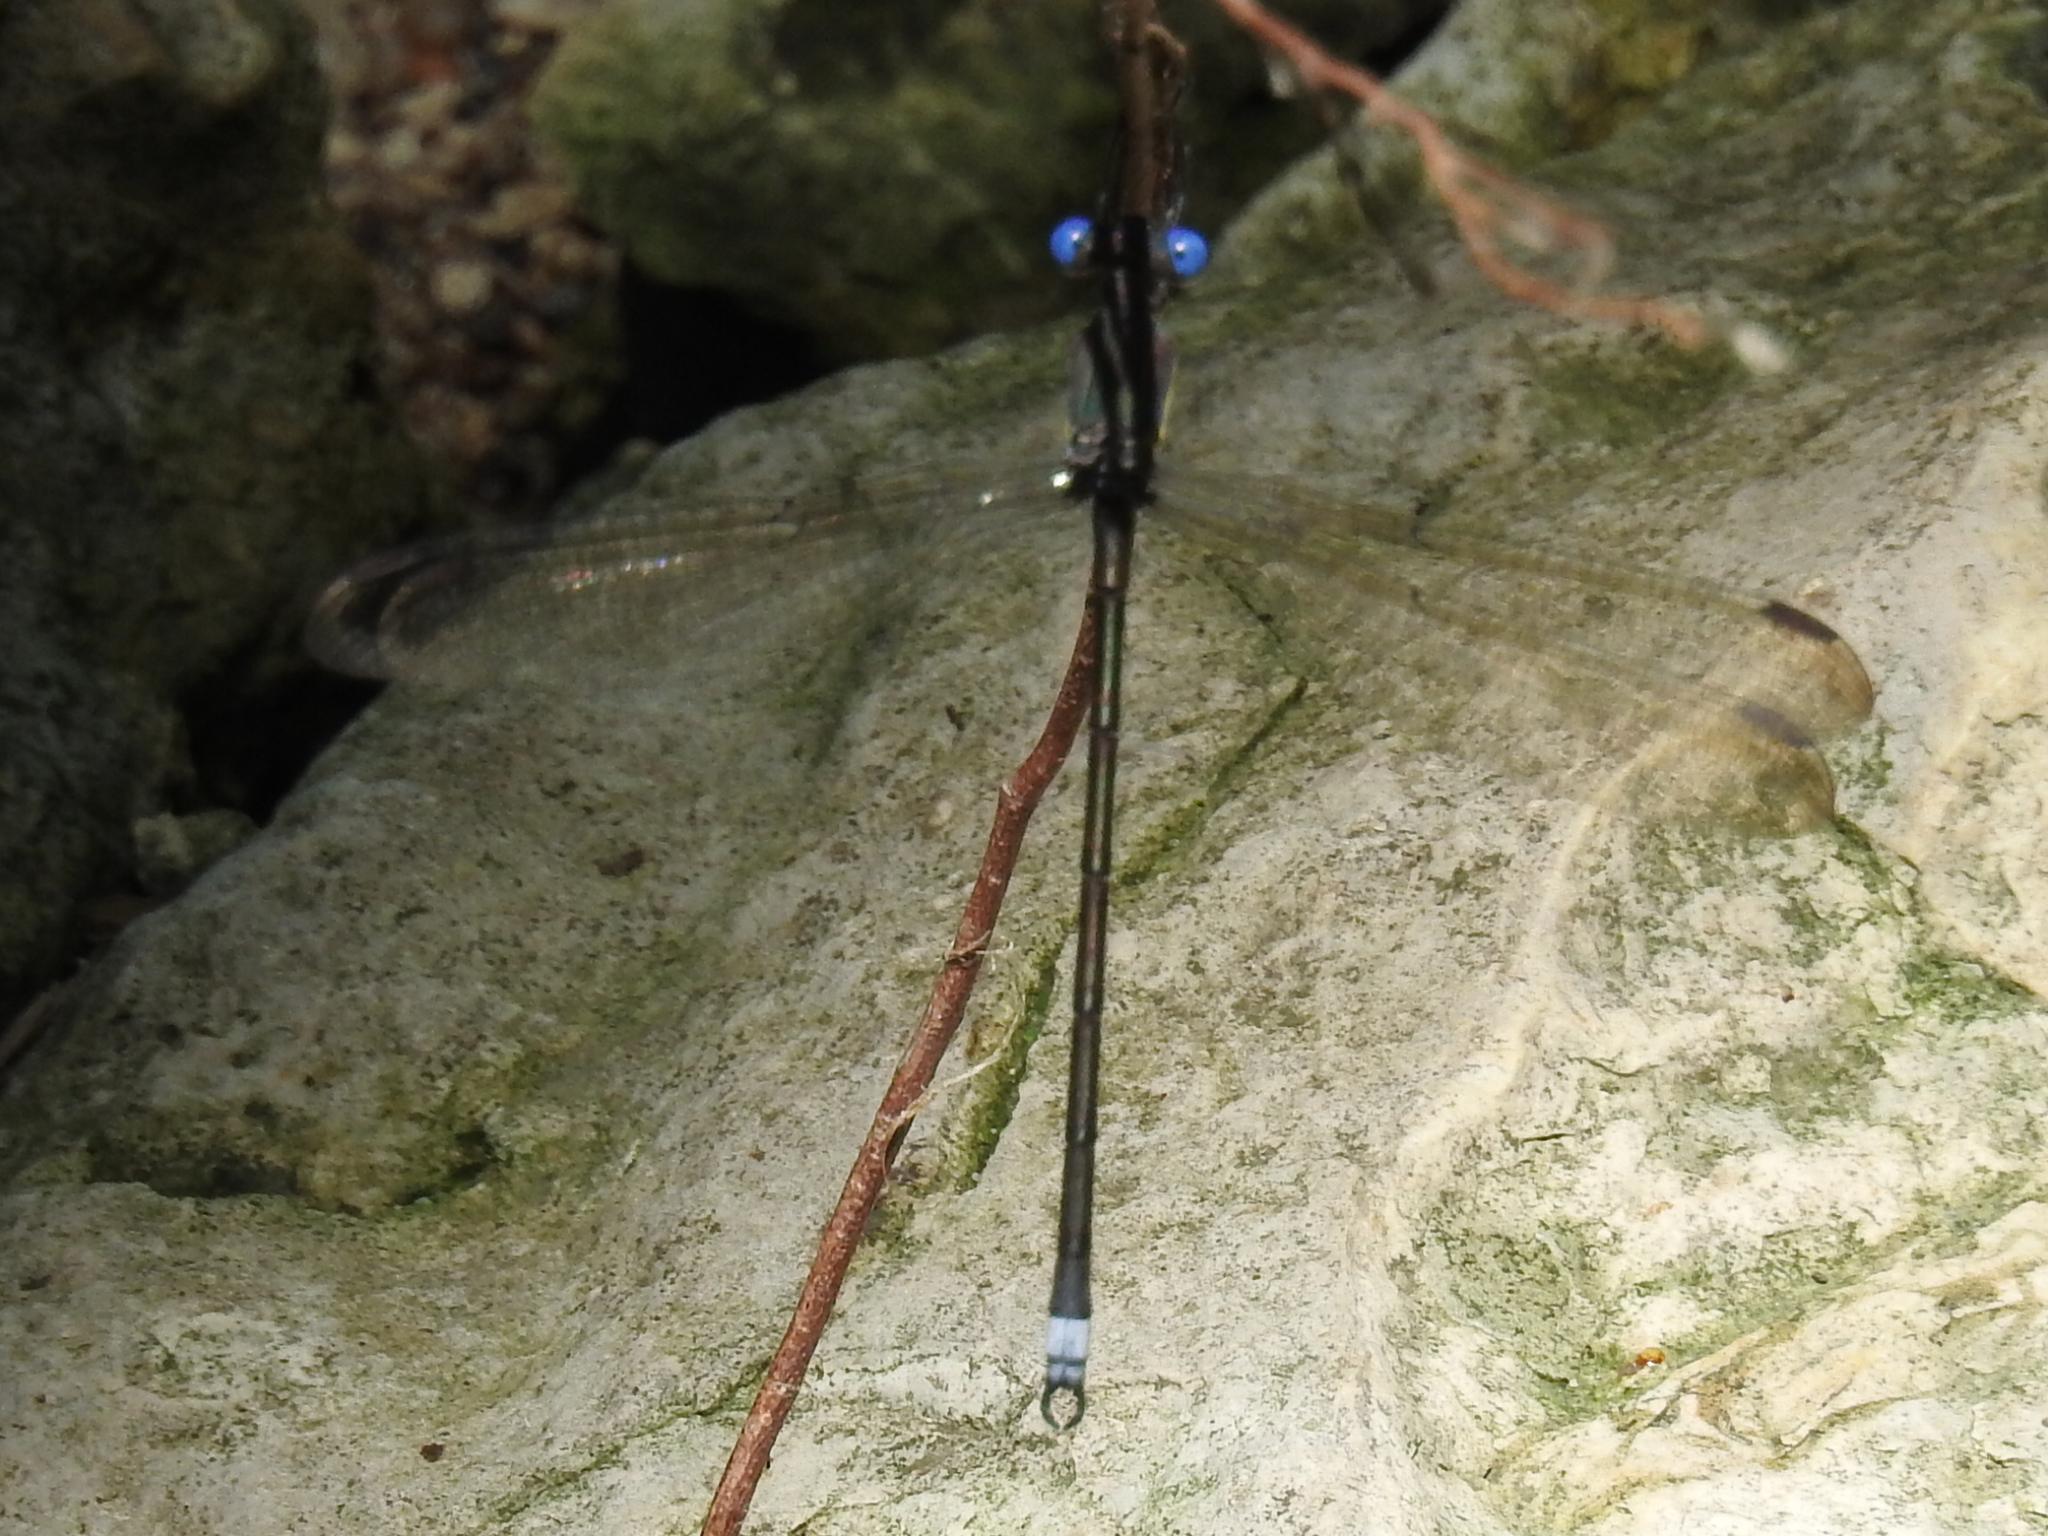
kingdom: Animalia
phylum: Arthropoda
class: Insecta
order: Odonata
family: Lestidae
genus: Archilestes
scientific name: Archilestes grandis
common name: Great spreadwing
